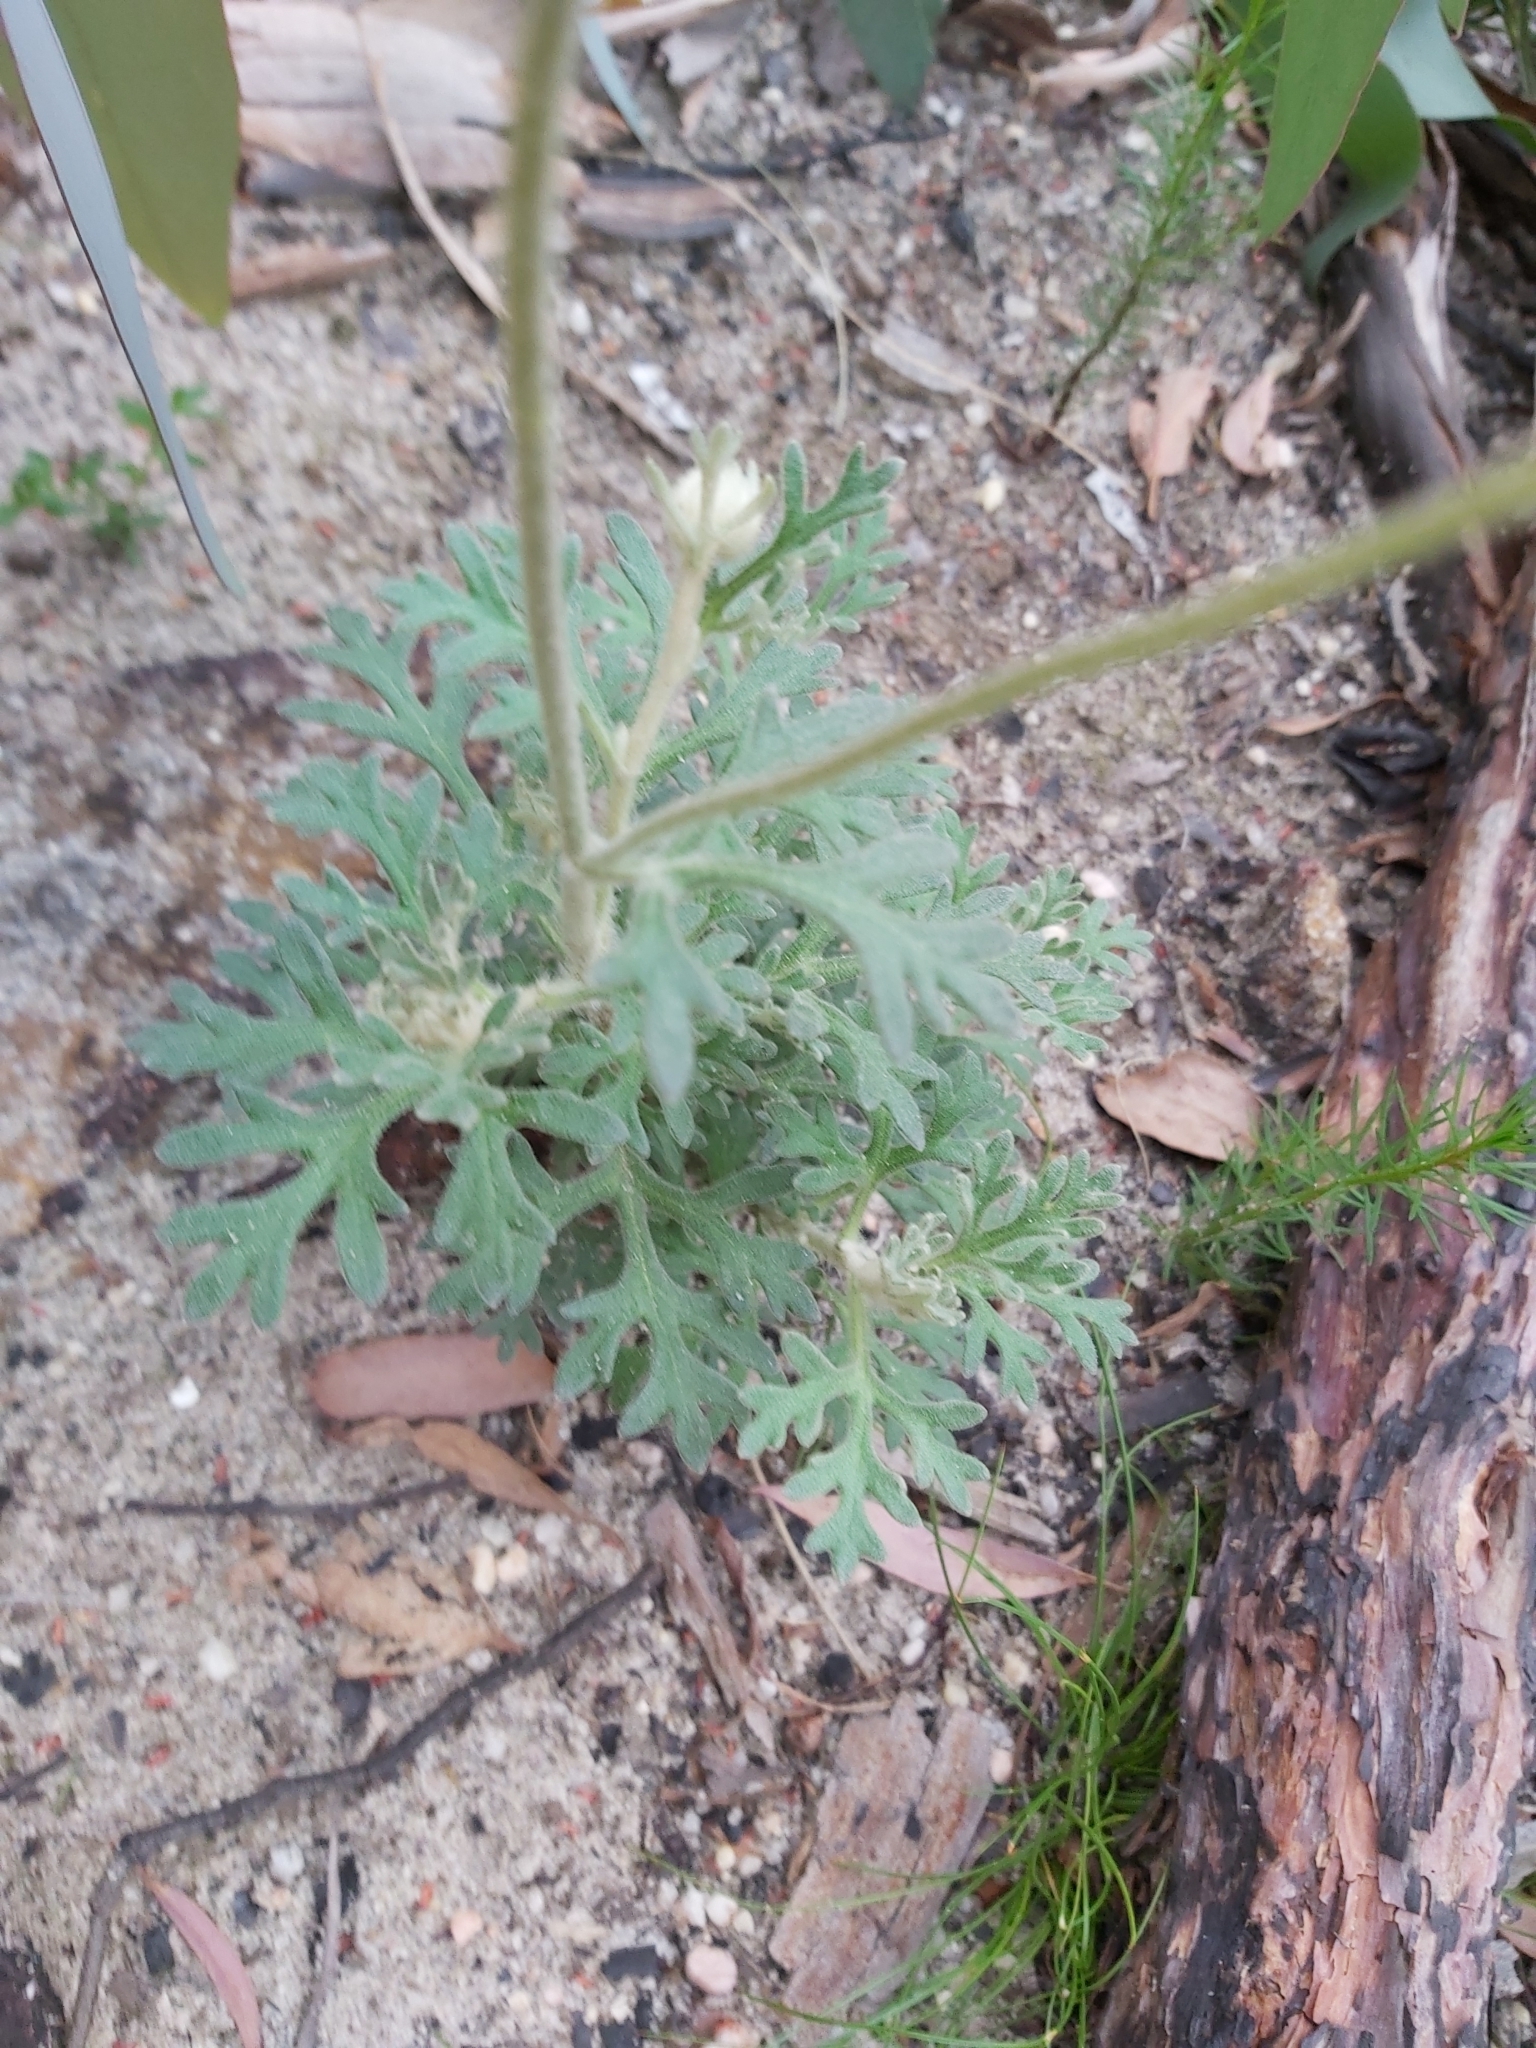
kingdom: Plantae
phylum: Tracheophyta
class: Magnoliopsida
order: Apiales
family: Apiaceae
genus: Actinotus
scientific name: Actinotus helianthi
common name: Flannel-flower
